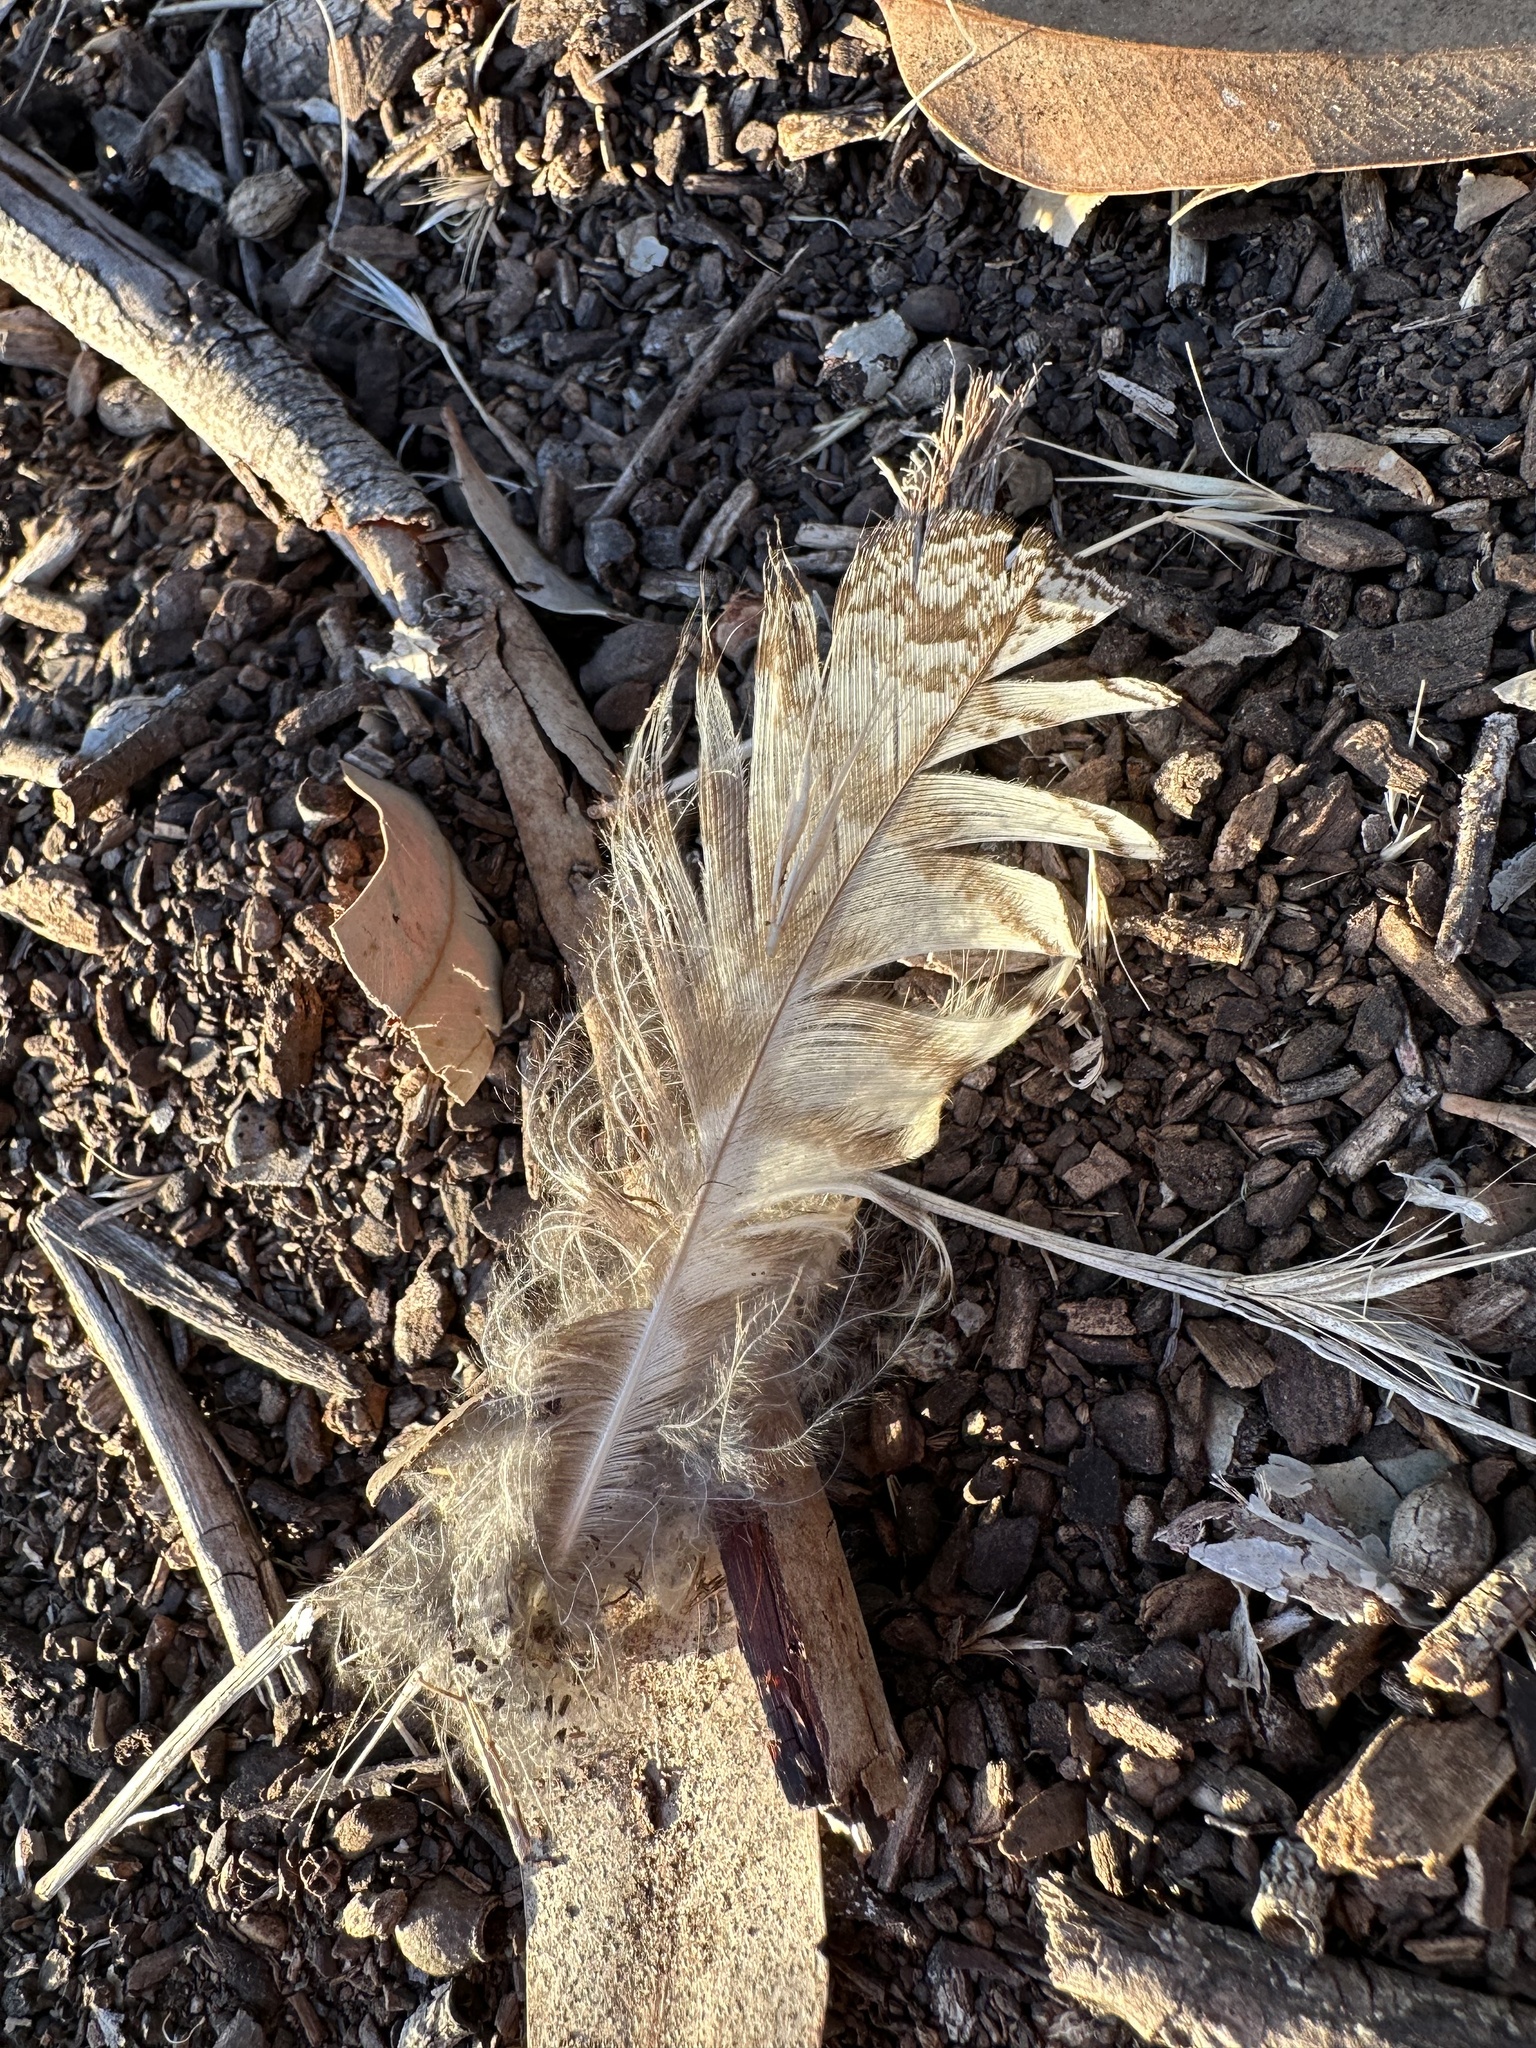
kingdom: Animalia
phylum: Chordata
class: Aves
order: Strigiformes
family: Strigidae
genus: Bubo
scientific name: Bubo virginianus
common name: Great horned owl
